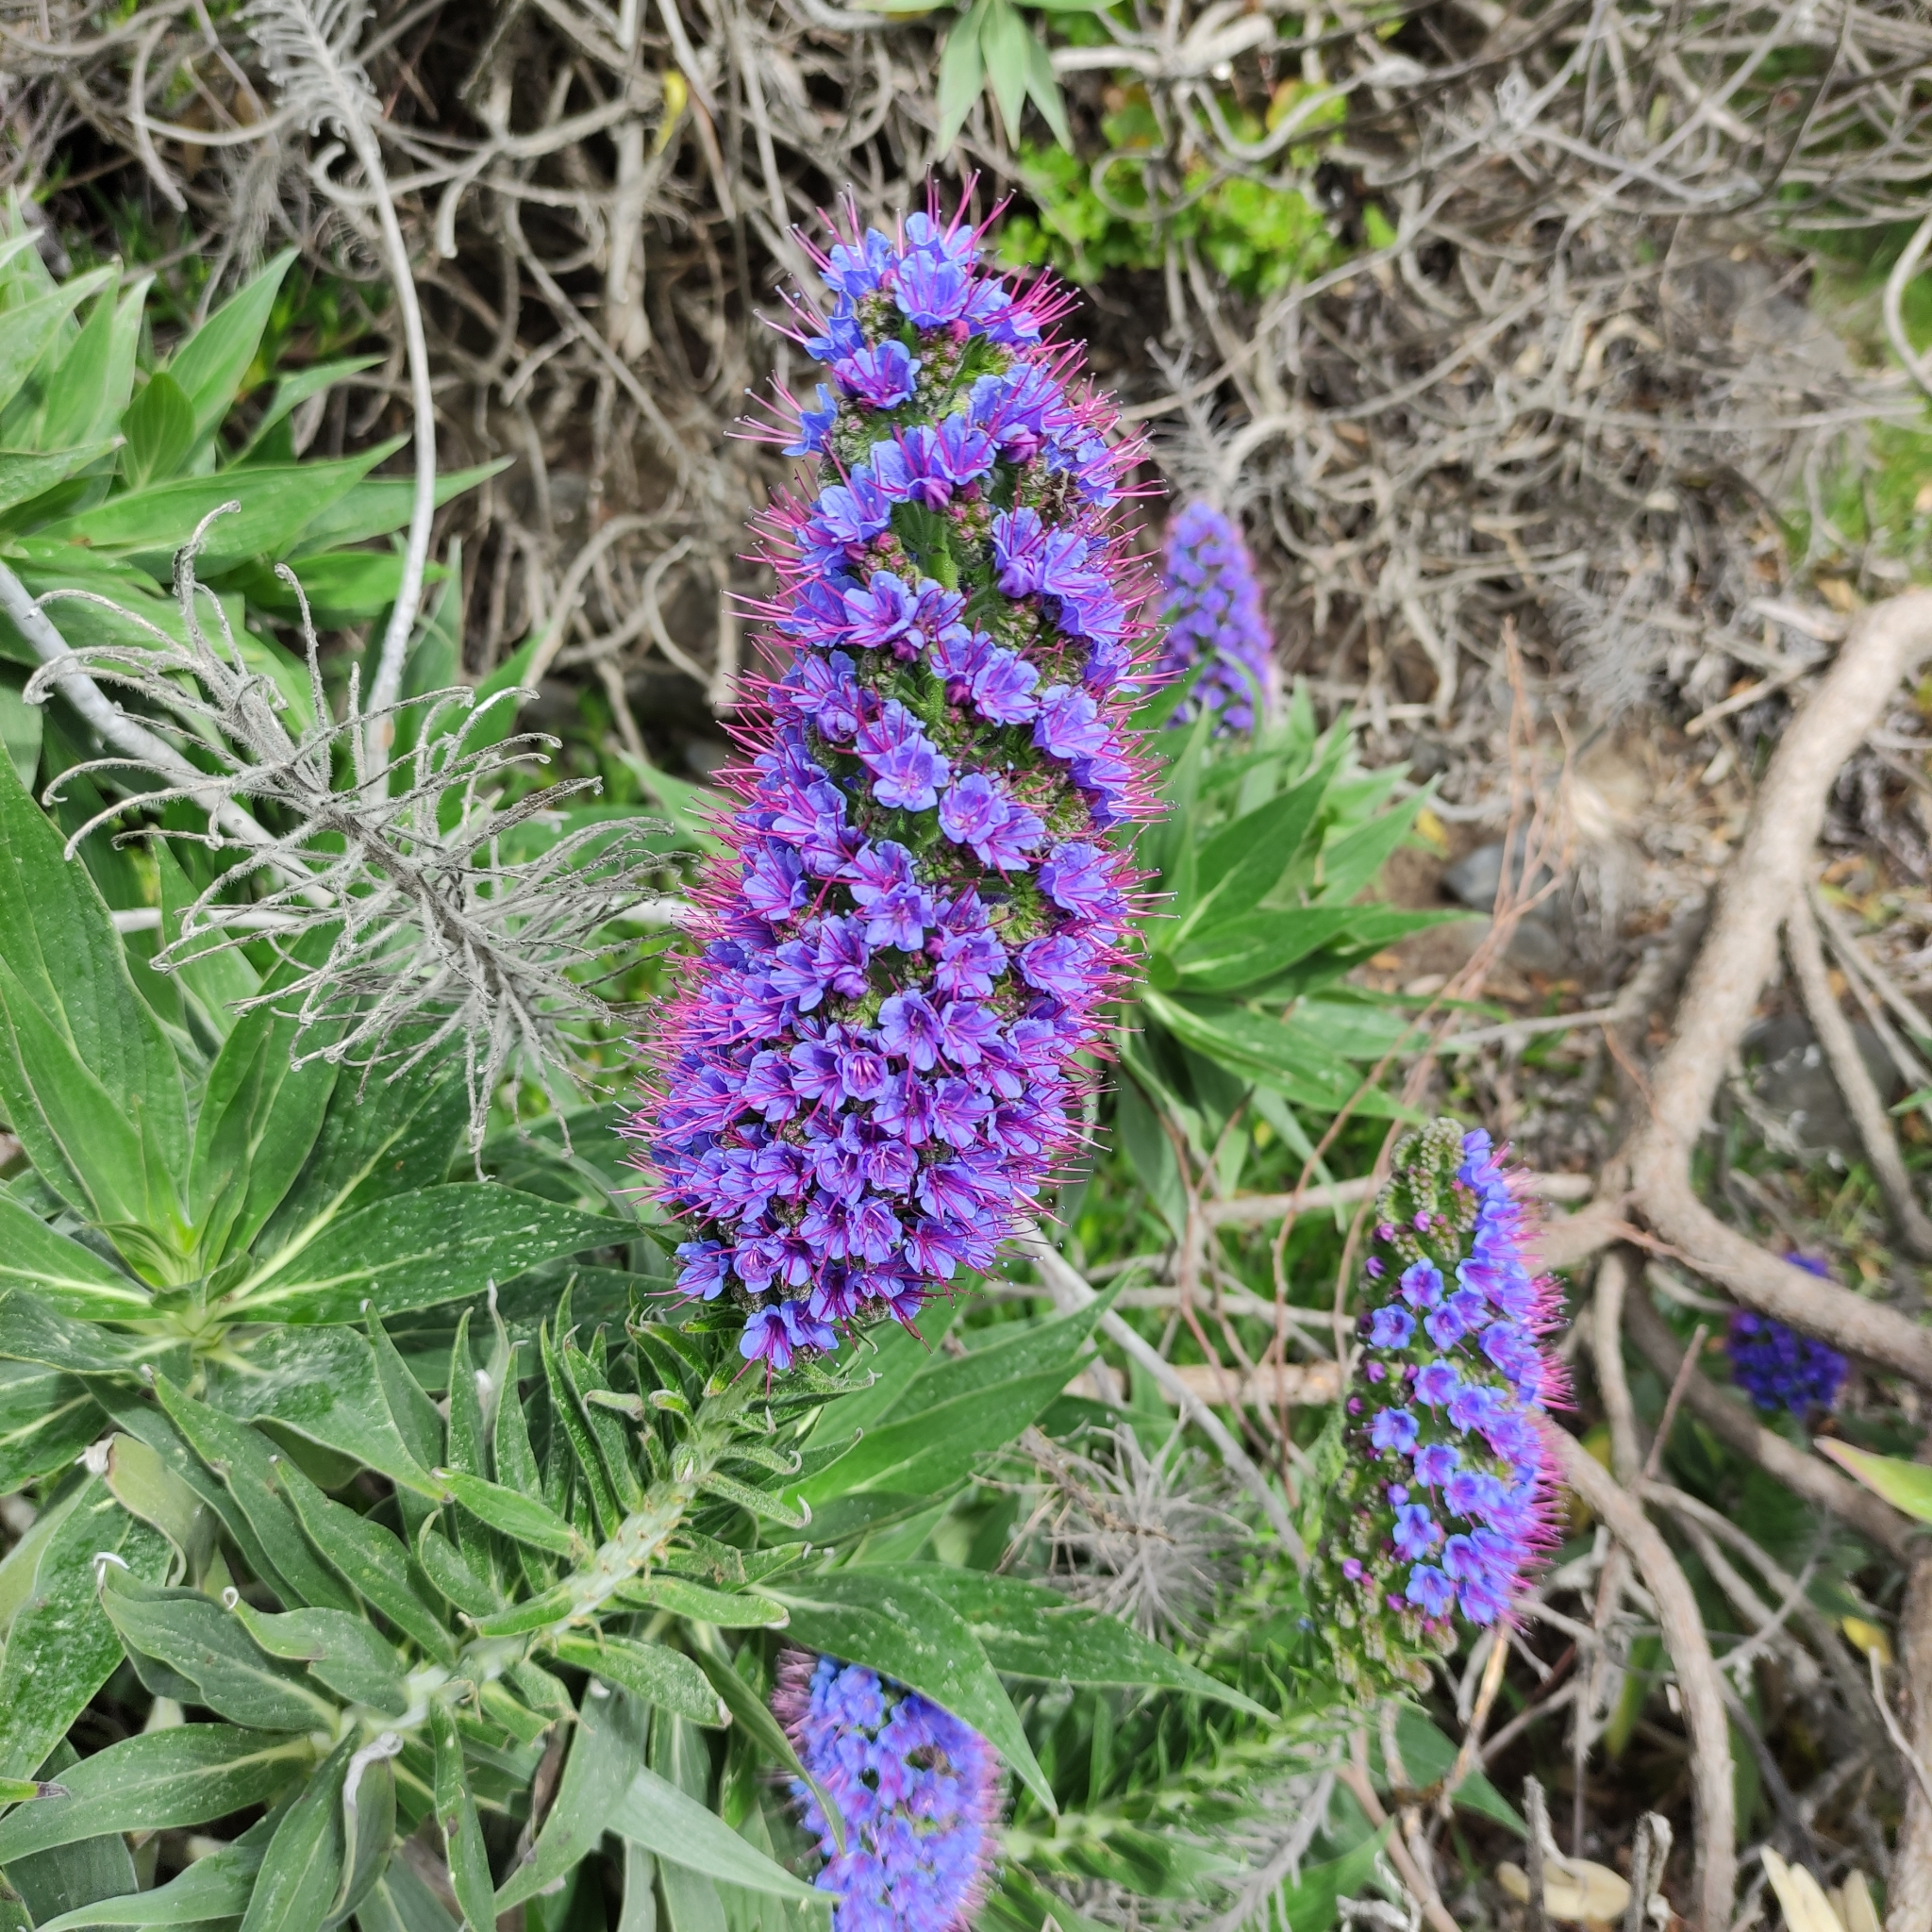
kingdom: Plantae
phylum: Tracheophyta
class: Magnoliopsida
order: Boraginales
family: Boraginaceae
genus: Echium
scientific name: Echium candicans
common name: Pride of madeira
